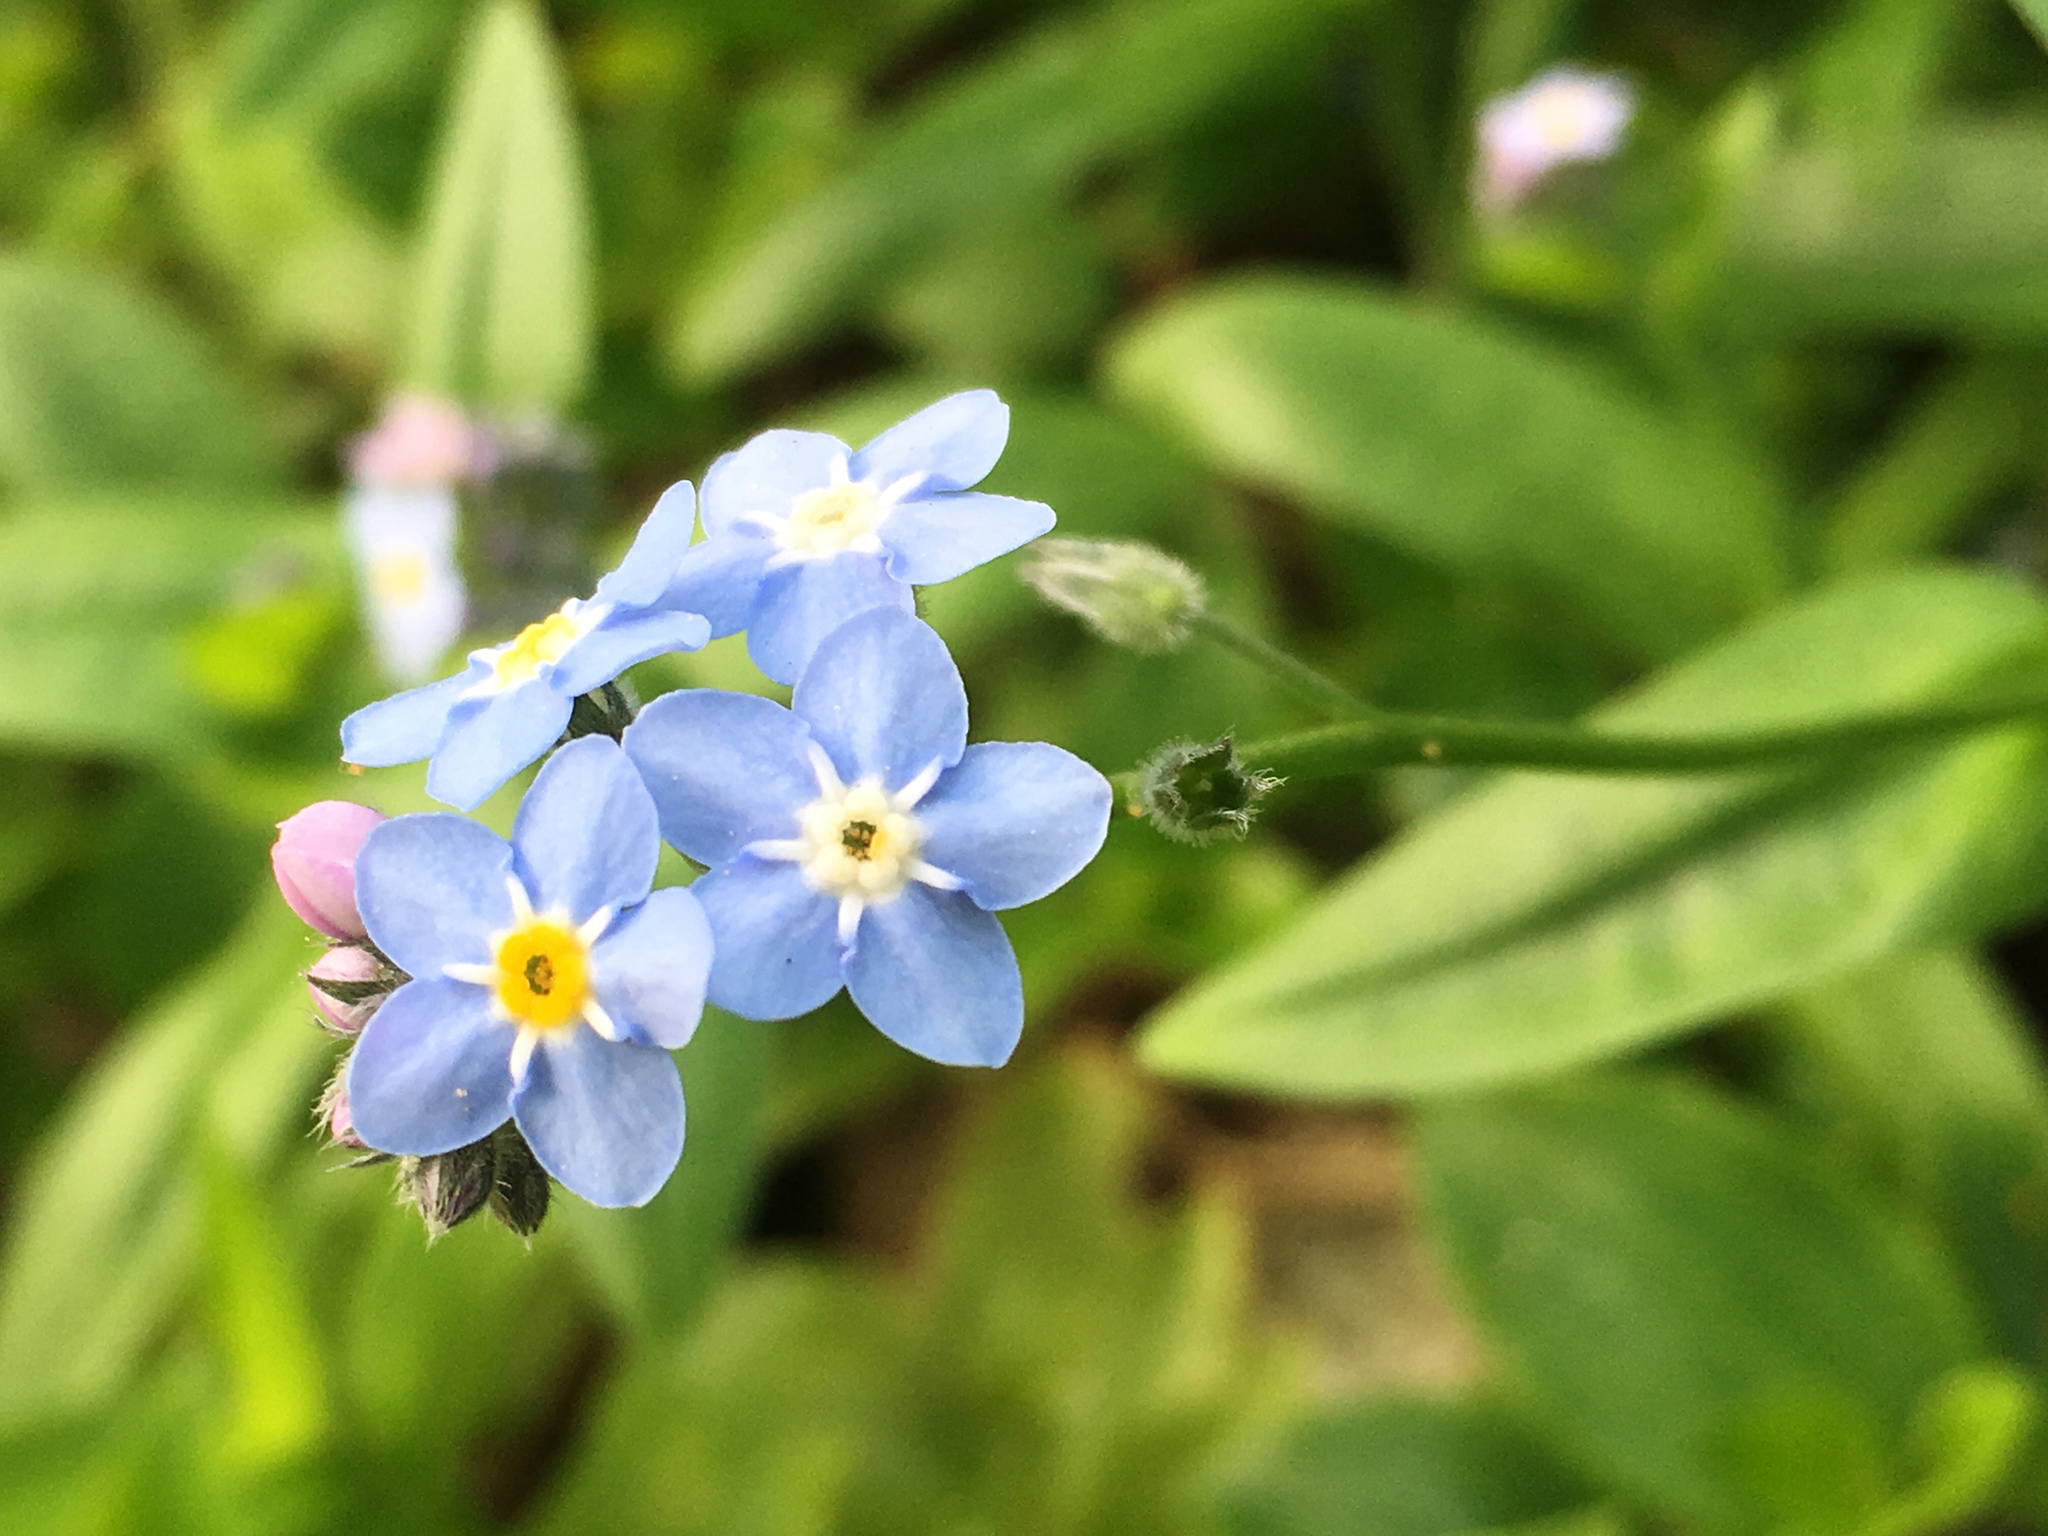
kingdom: Plantae
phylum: Tracheophyta
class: Magnoliopsida
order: Boraginales
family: Boraginaceae
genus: Myosotis
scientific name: Myosotis sylvatica
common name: Wood forget-me-not
